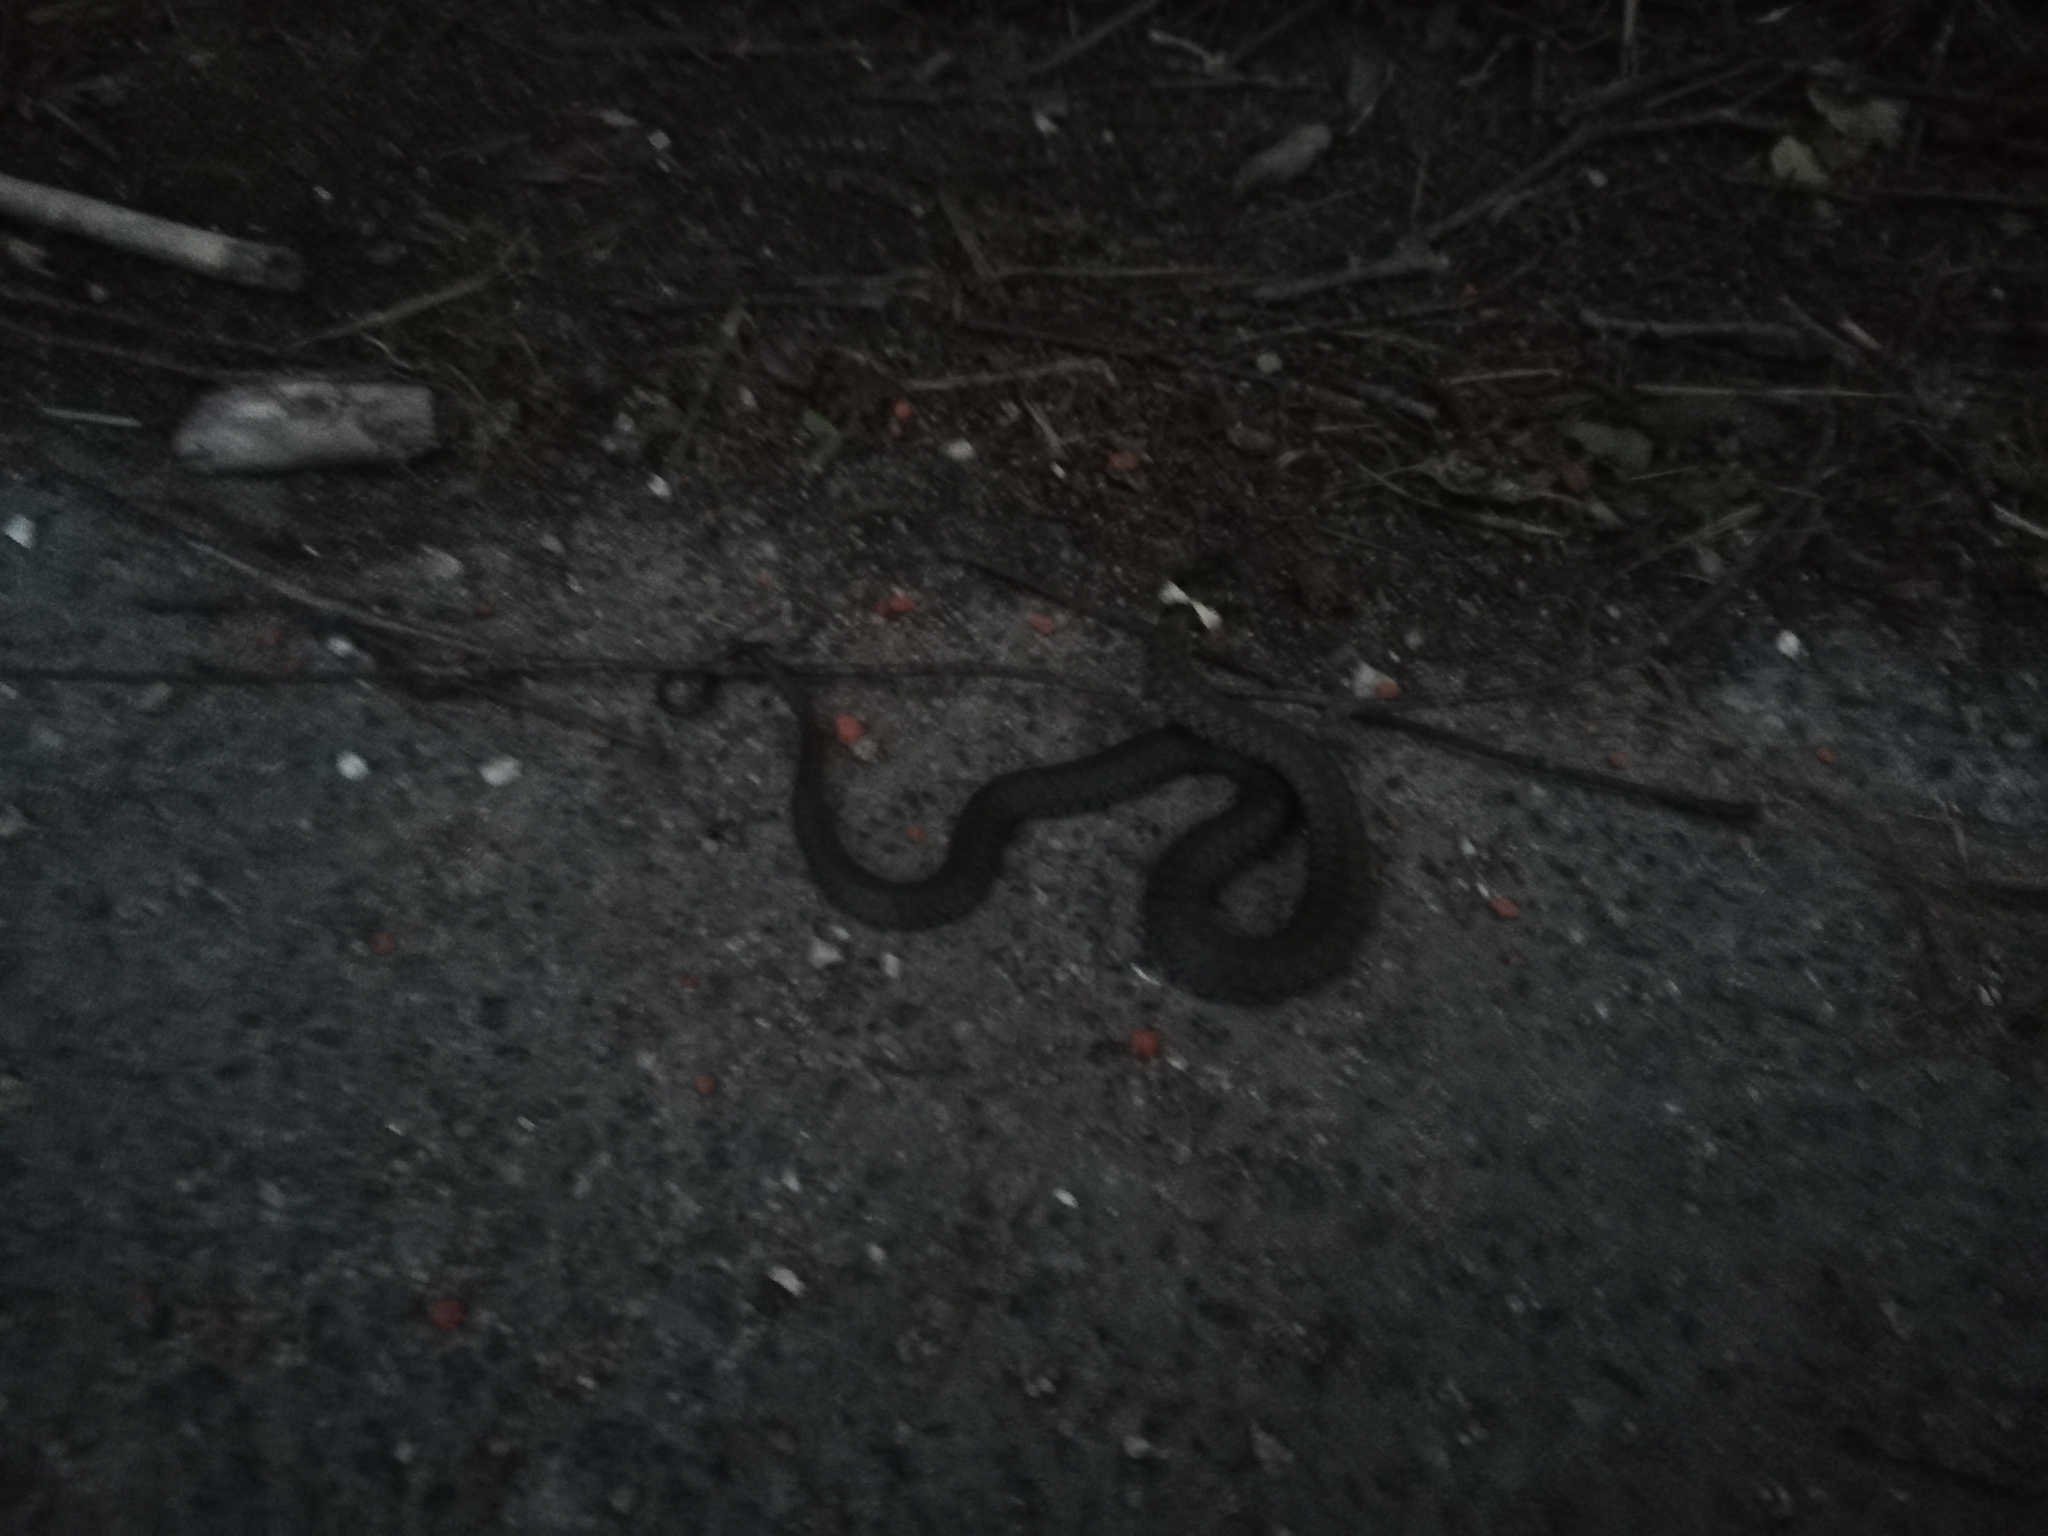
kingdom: Animalia
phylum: Chordata
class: Squamata
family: Colubridae
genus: Natrix
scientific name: Natrix natrix
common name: Grass snake
